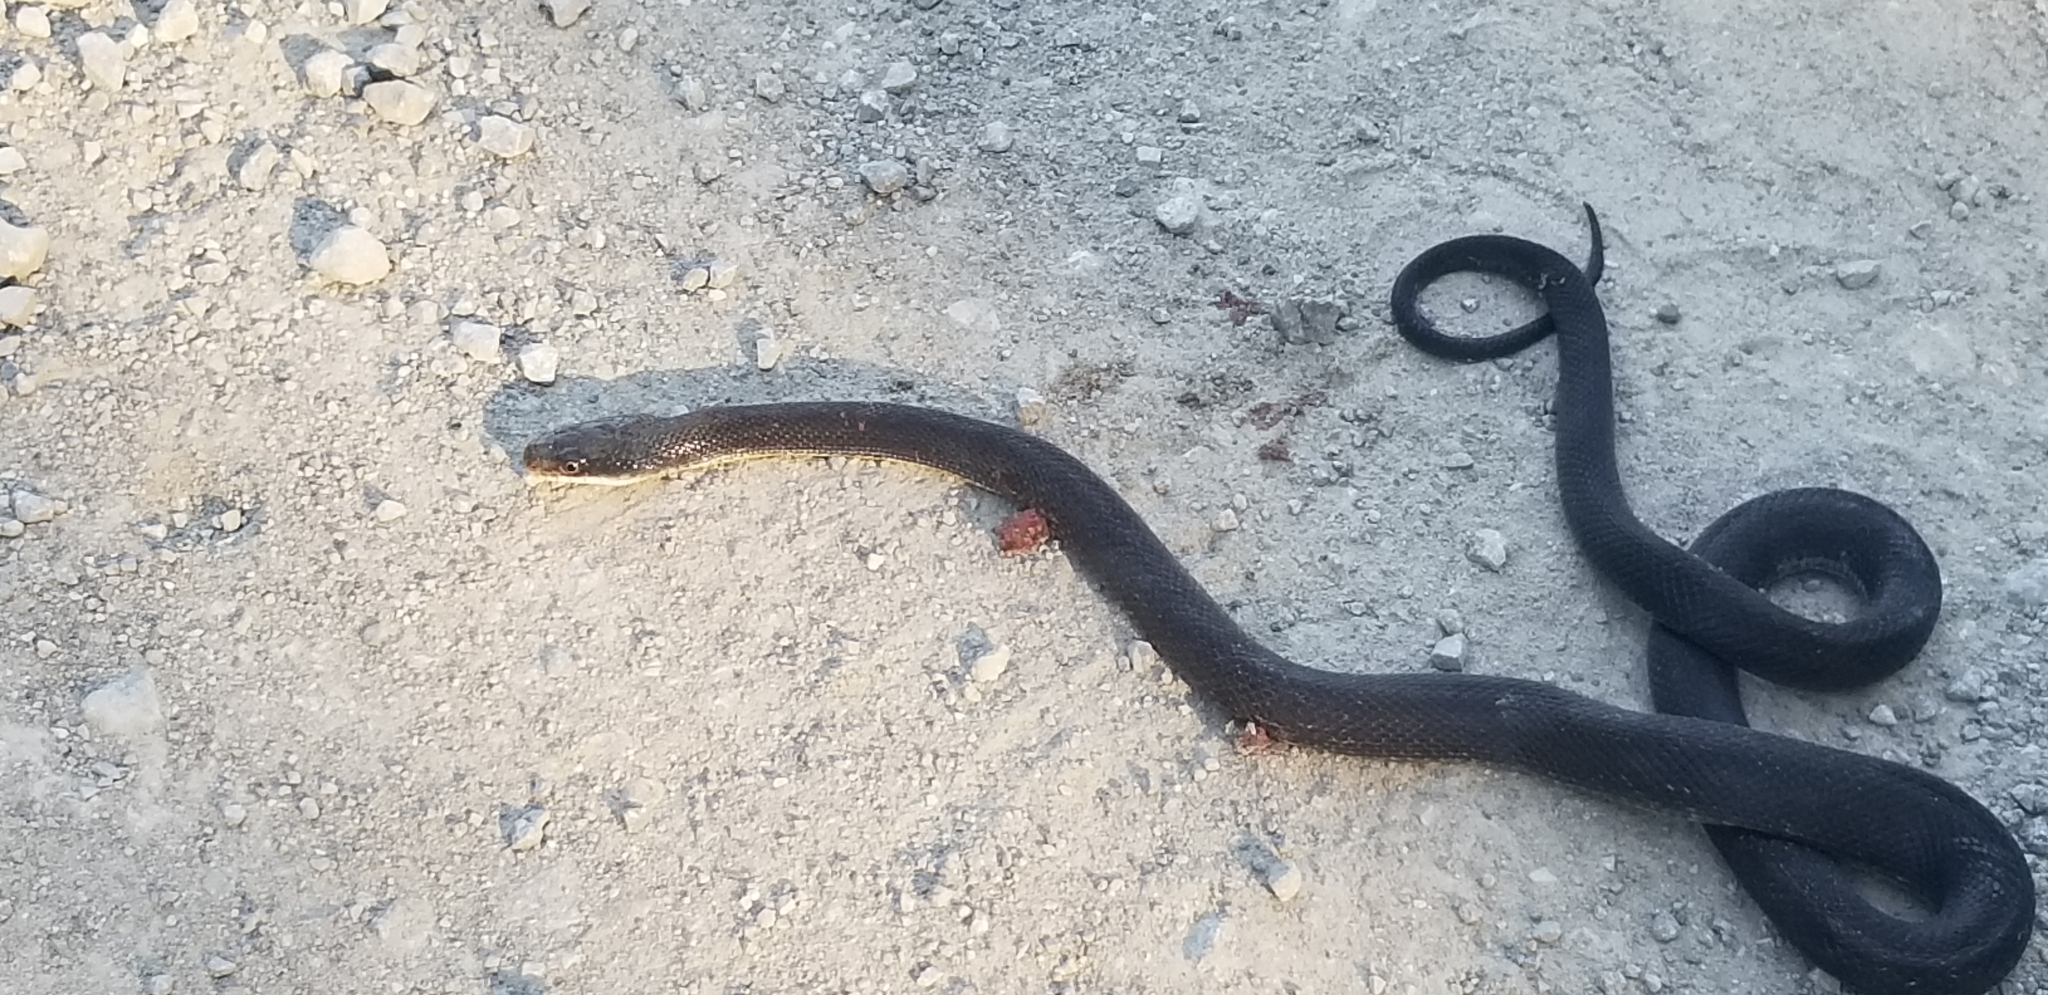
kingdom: Animalia
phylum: Chordata
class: Squamata
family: Colubridae
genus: Pantherophis
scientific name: Pantherophis obsoletus
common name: Black rat snake
